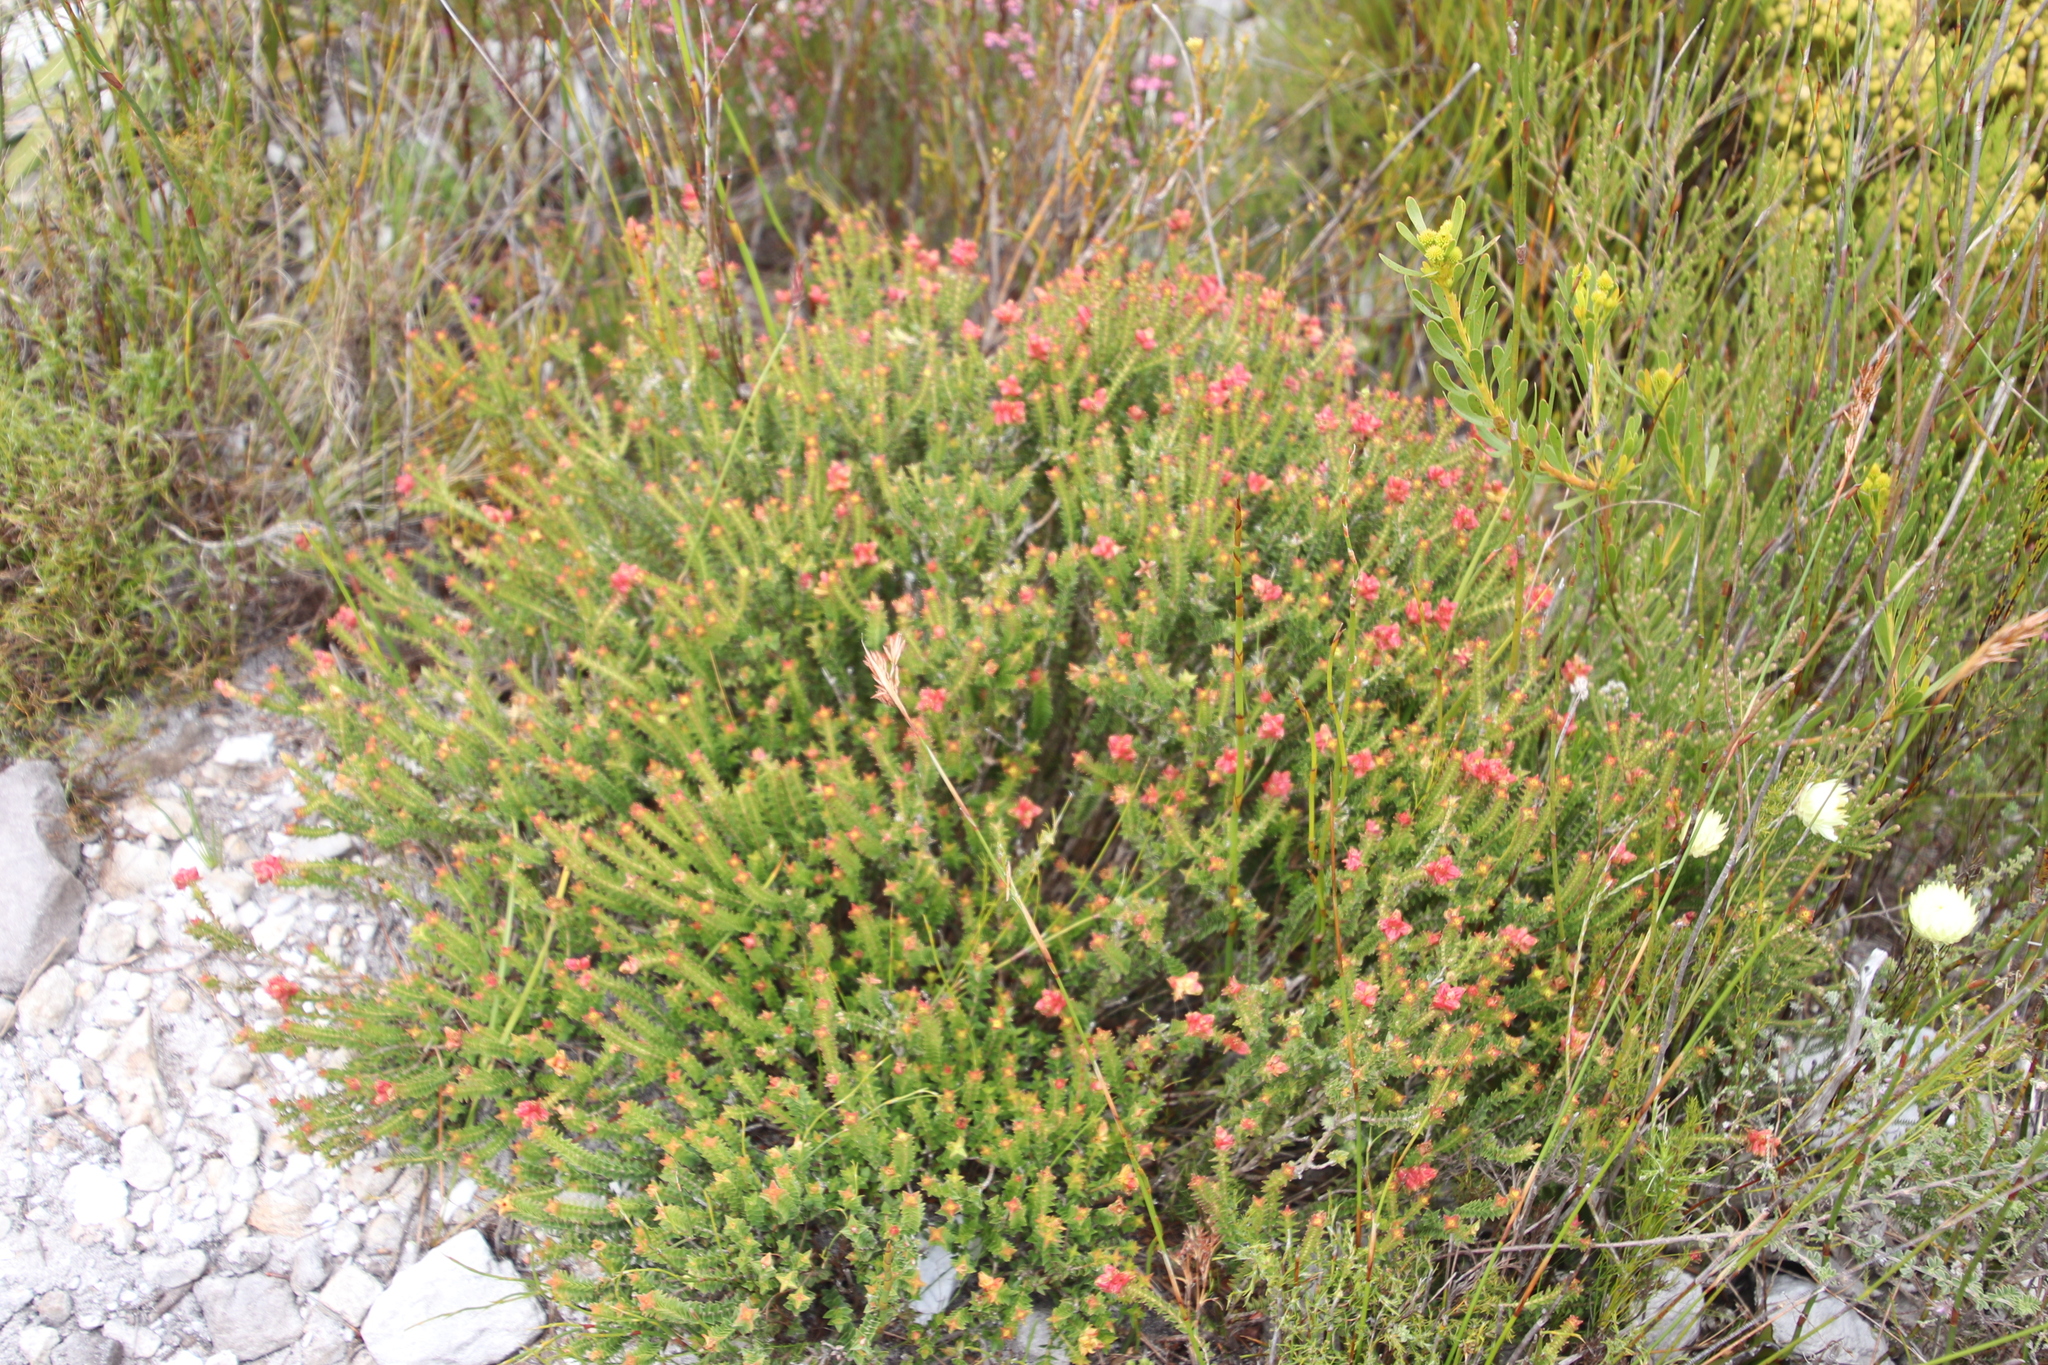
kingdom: Plantae
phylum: Tracheophyta
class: Magnoliopsida
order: Myrtales
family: Penaeaceae
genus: Penaea
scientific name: Penaea mucronata
